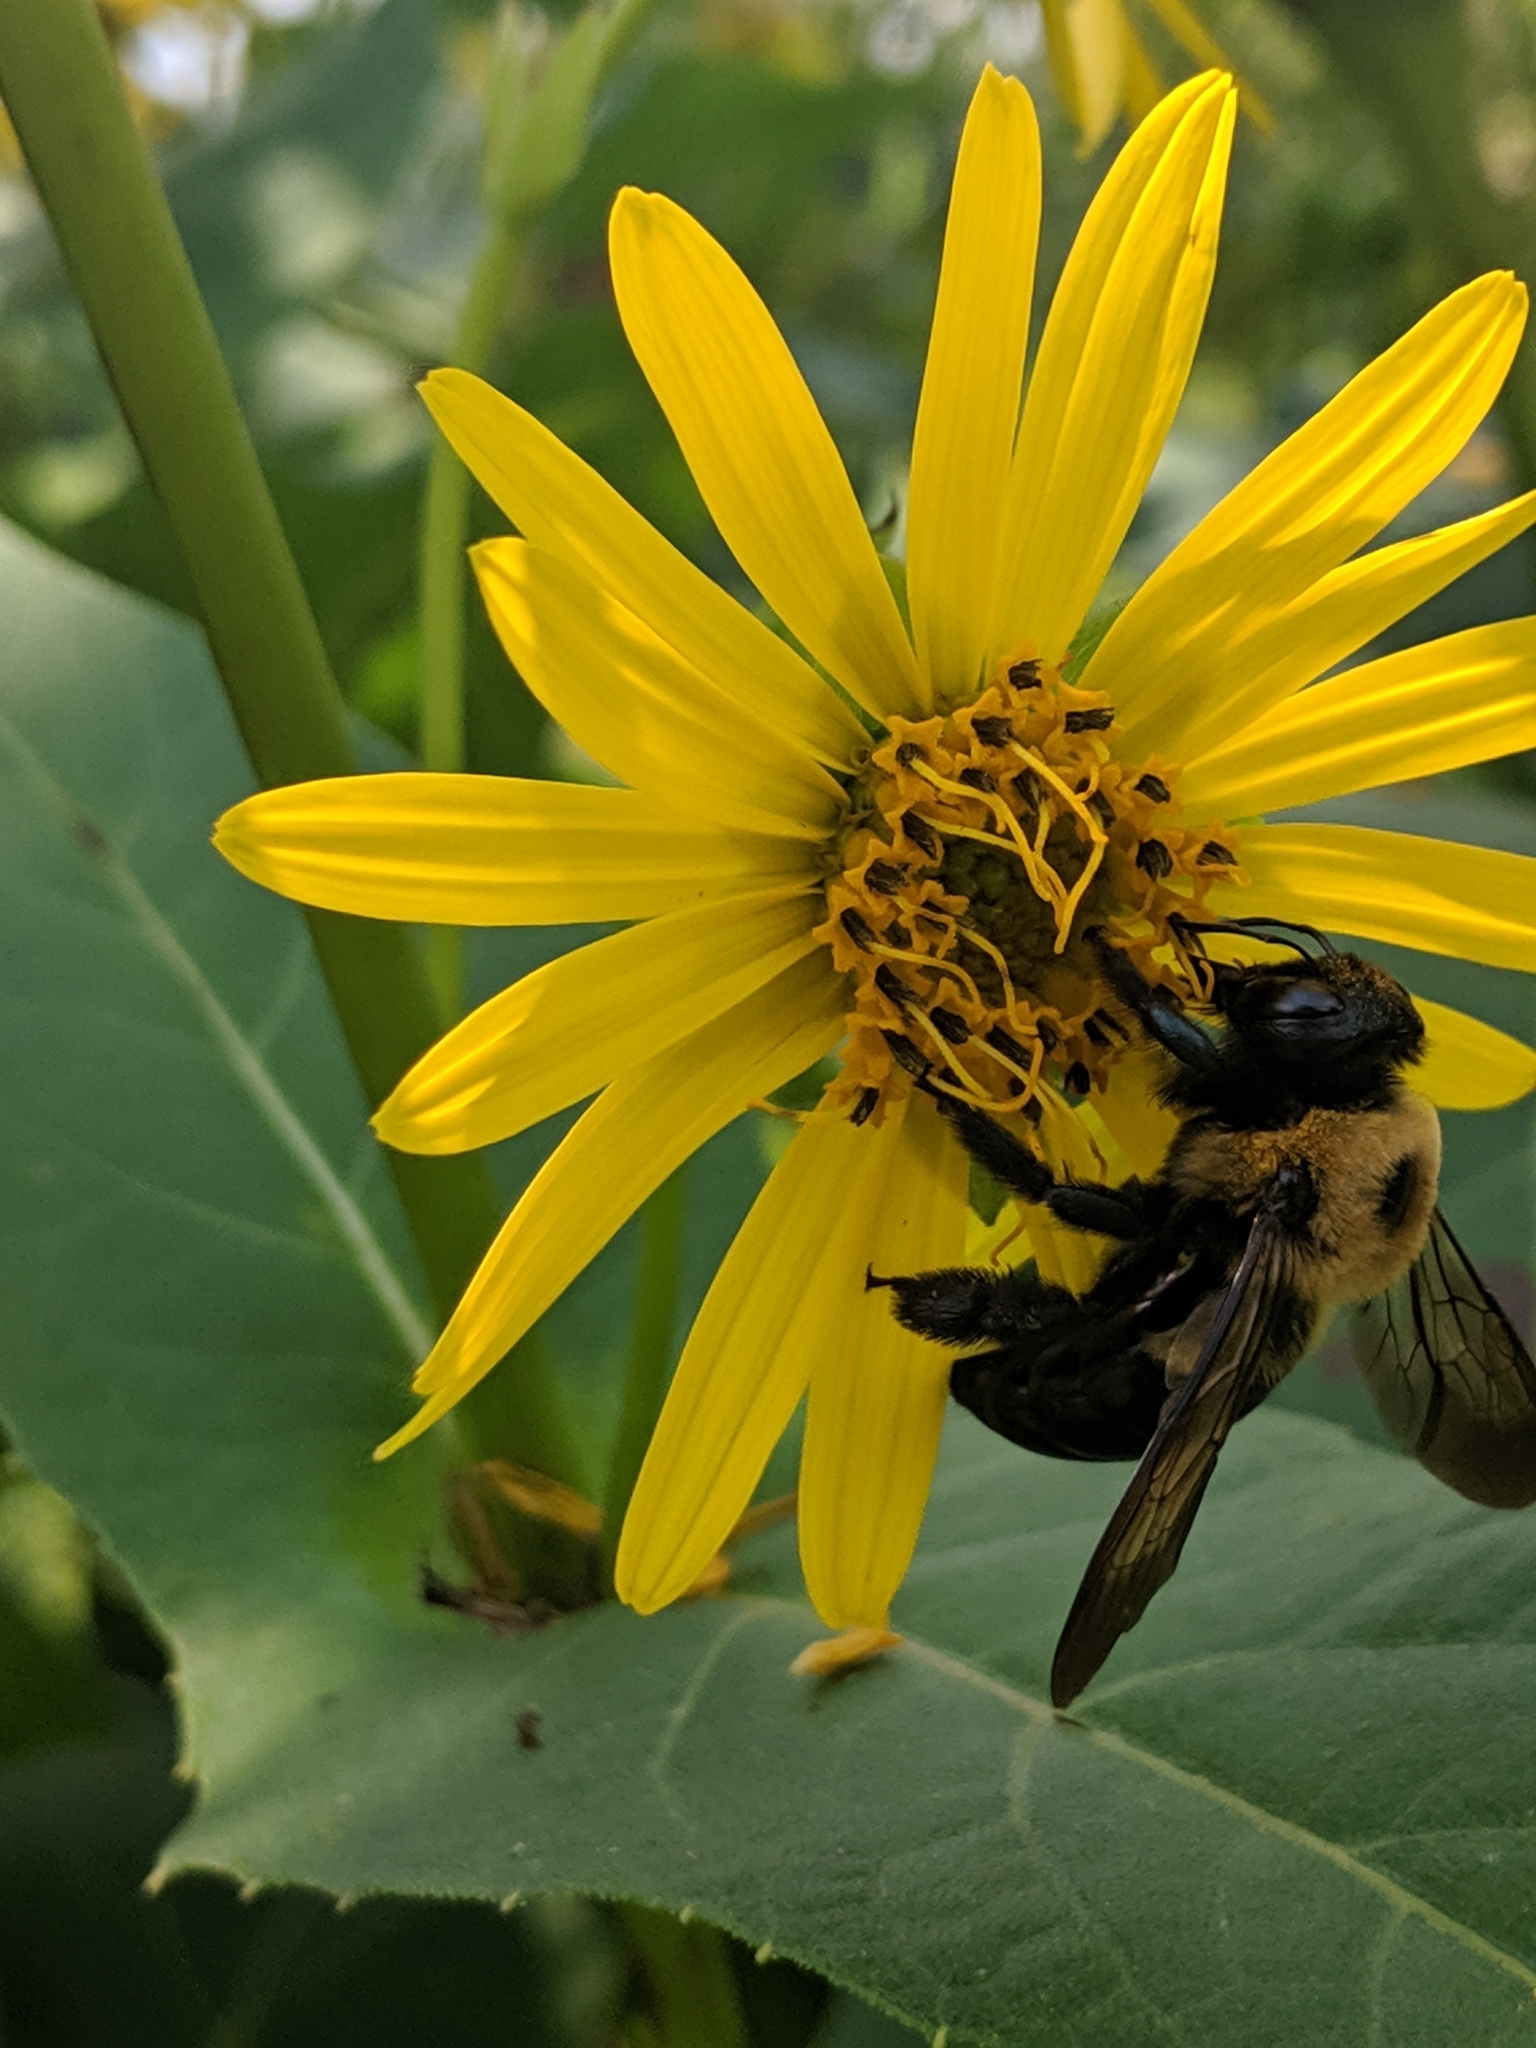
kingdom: Animalia
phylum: Arthropoda
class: Insecta
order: Hymenoptera
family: Apidae
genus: Xylocopa
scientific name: Xylocopa virginica
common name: Carpenter bee
